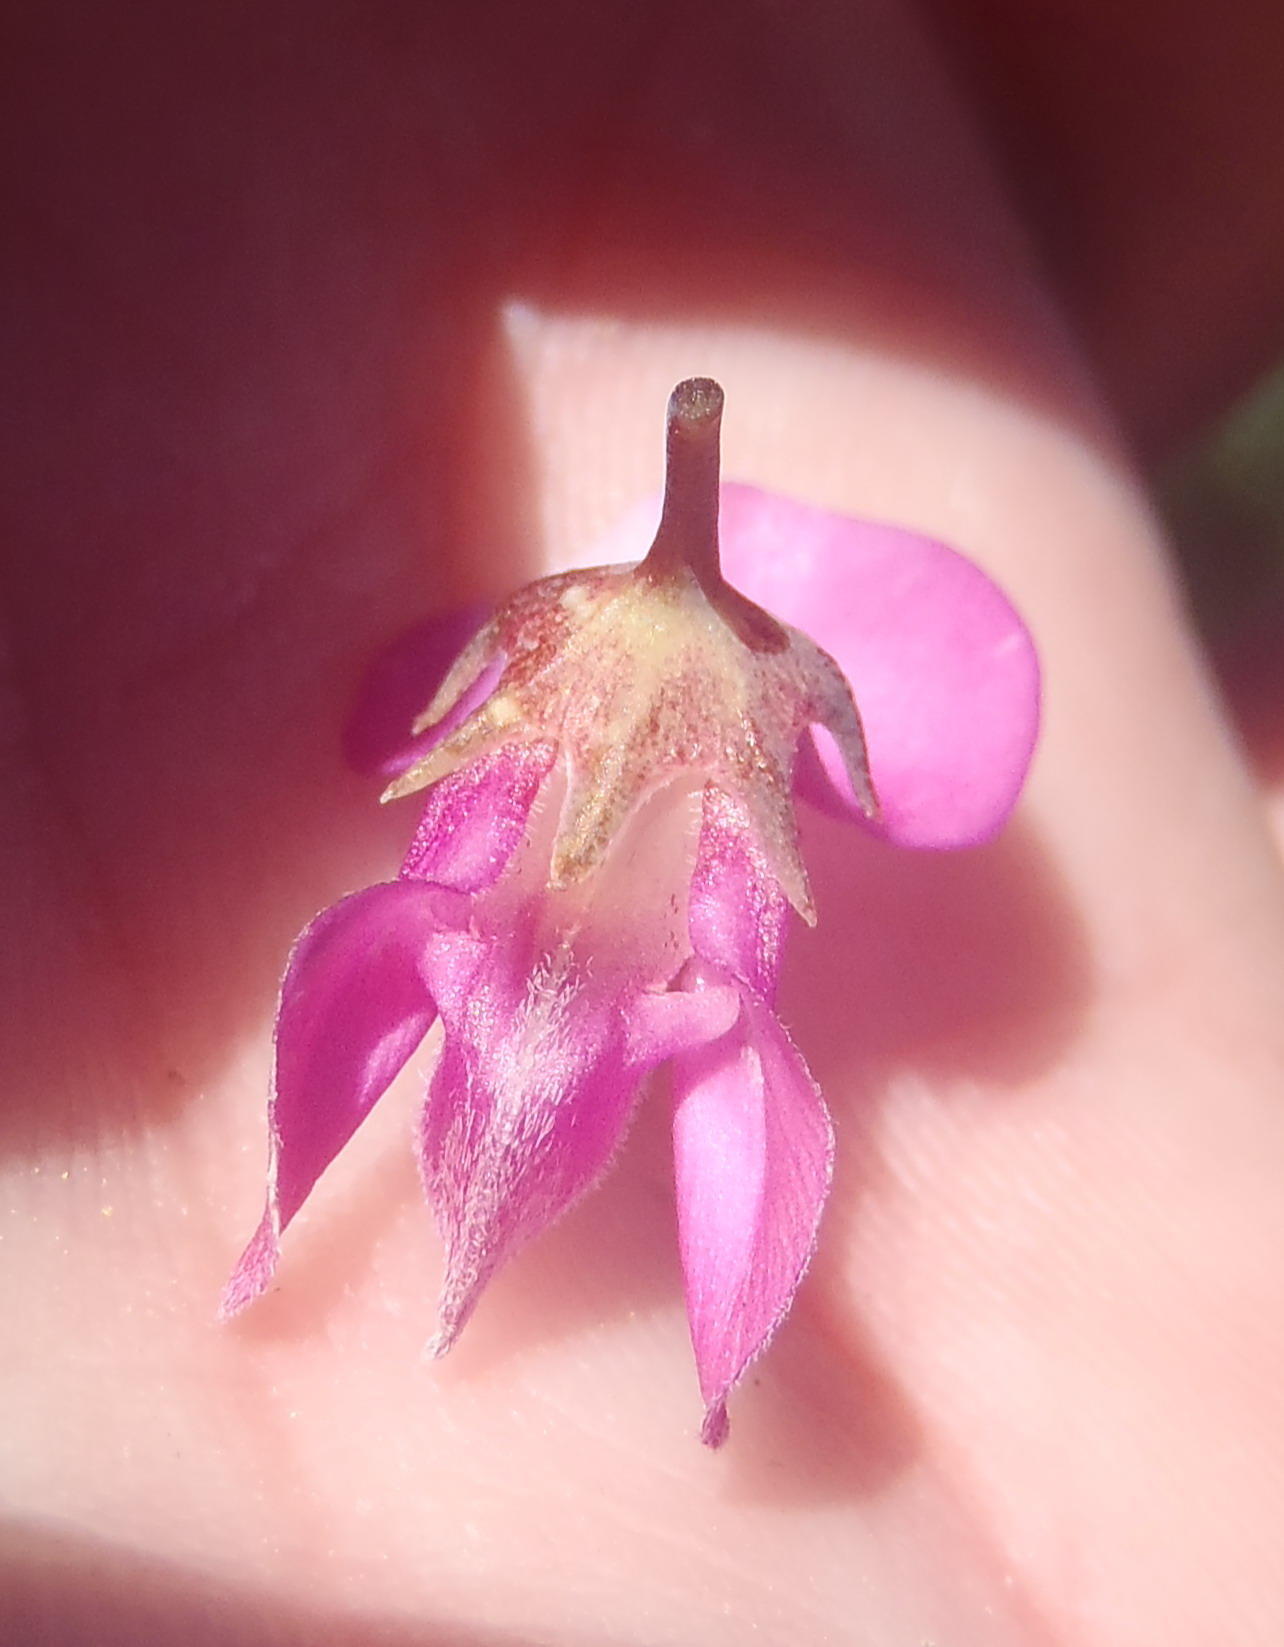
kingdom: Plantae
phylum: Tracheophyta
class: Magnoliopsida
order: Fabales
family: Fabaceae
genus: Indigofera
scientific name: Indigofera filifolia
